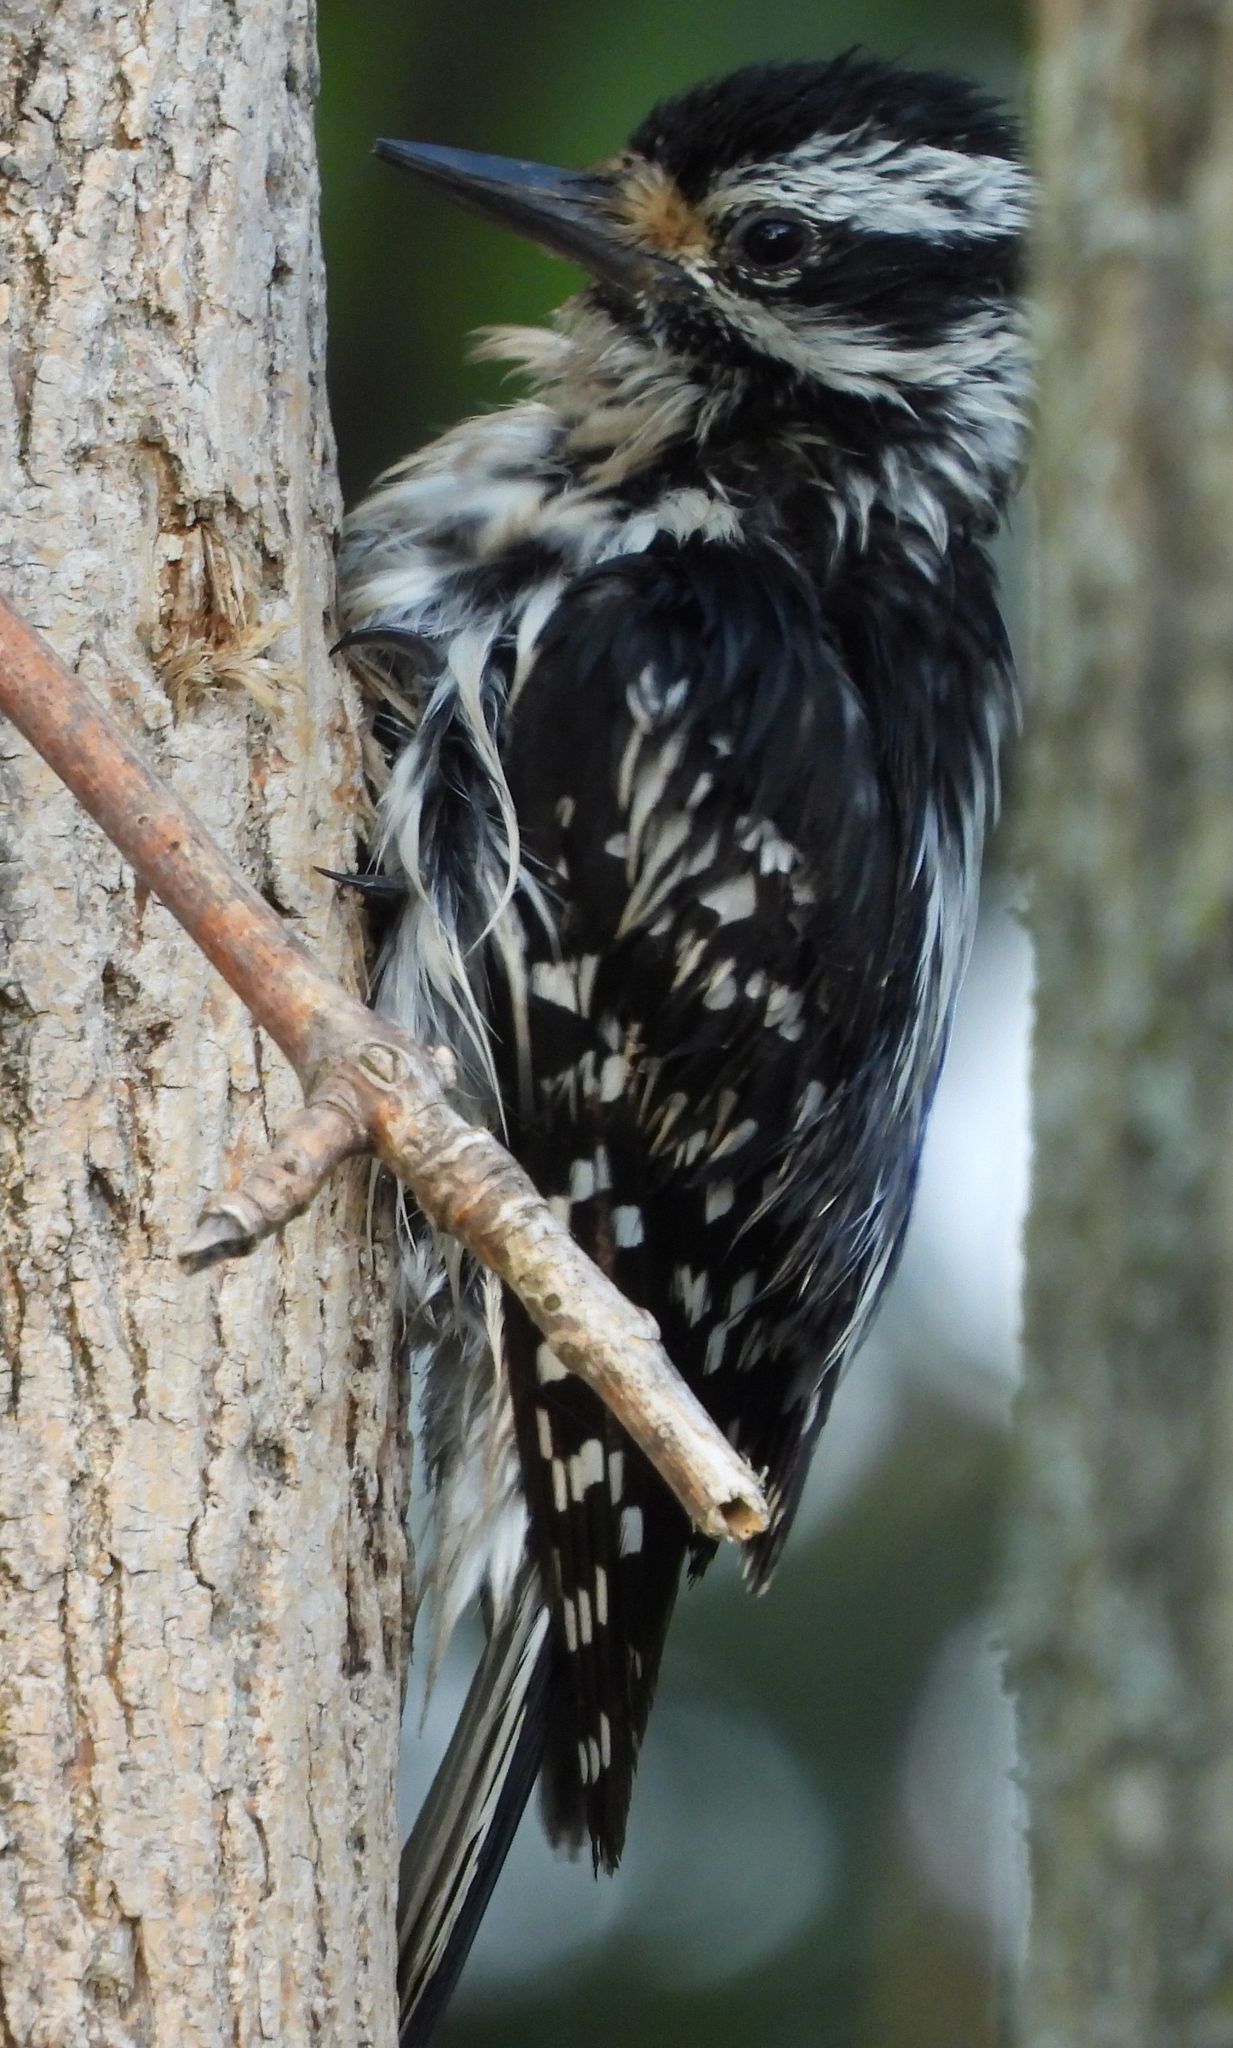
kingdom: Animalia
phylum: Chordata
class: Aves
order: Piciformes
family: Picidae
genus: Leuconotopicus
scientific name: Leuconotopicus villosus
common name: Hairy woodpecker
